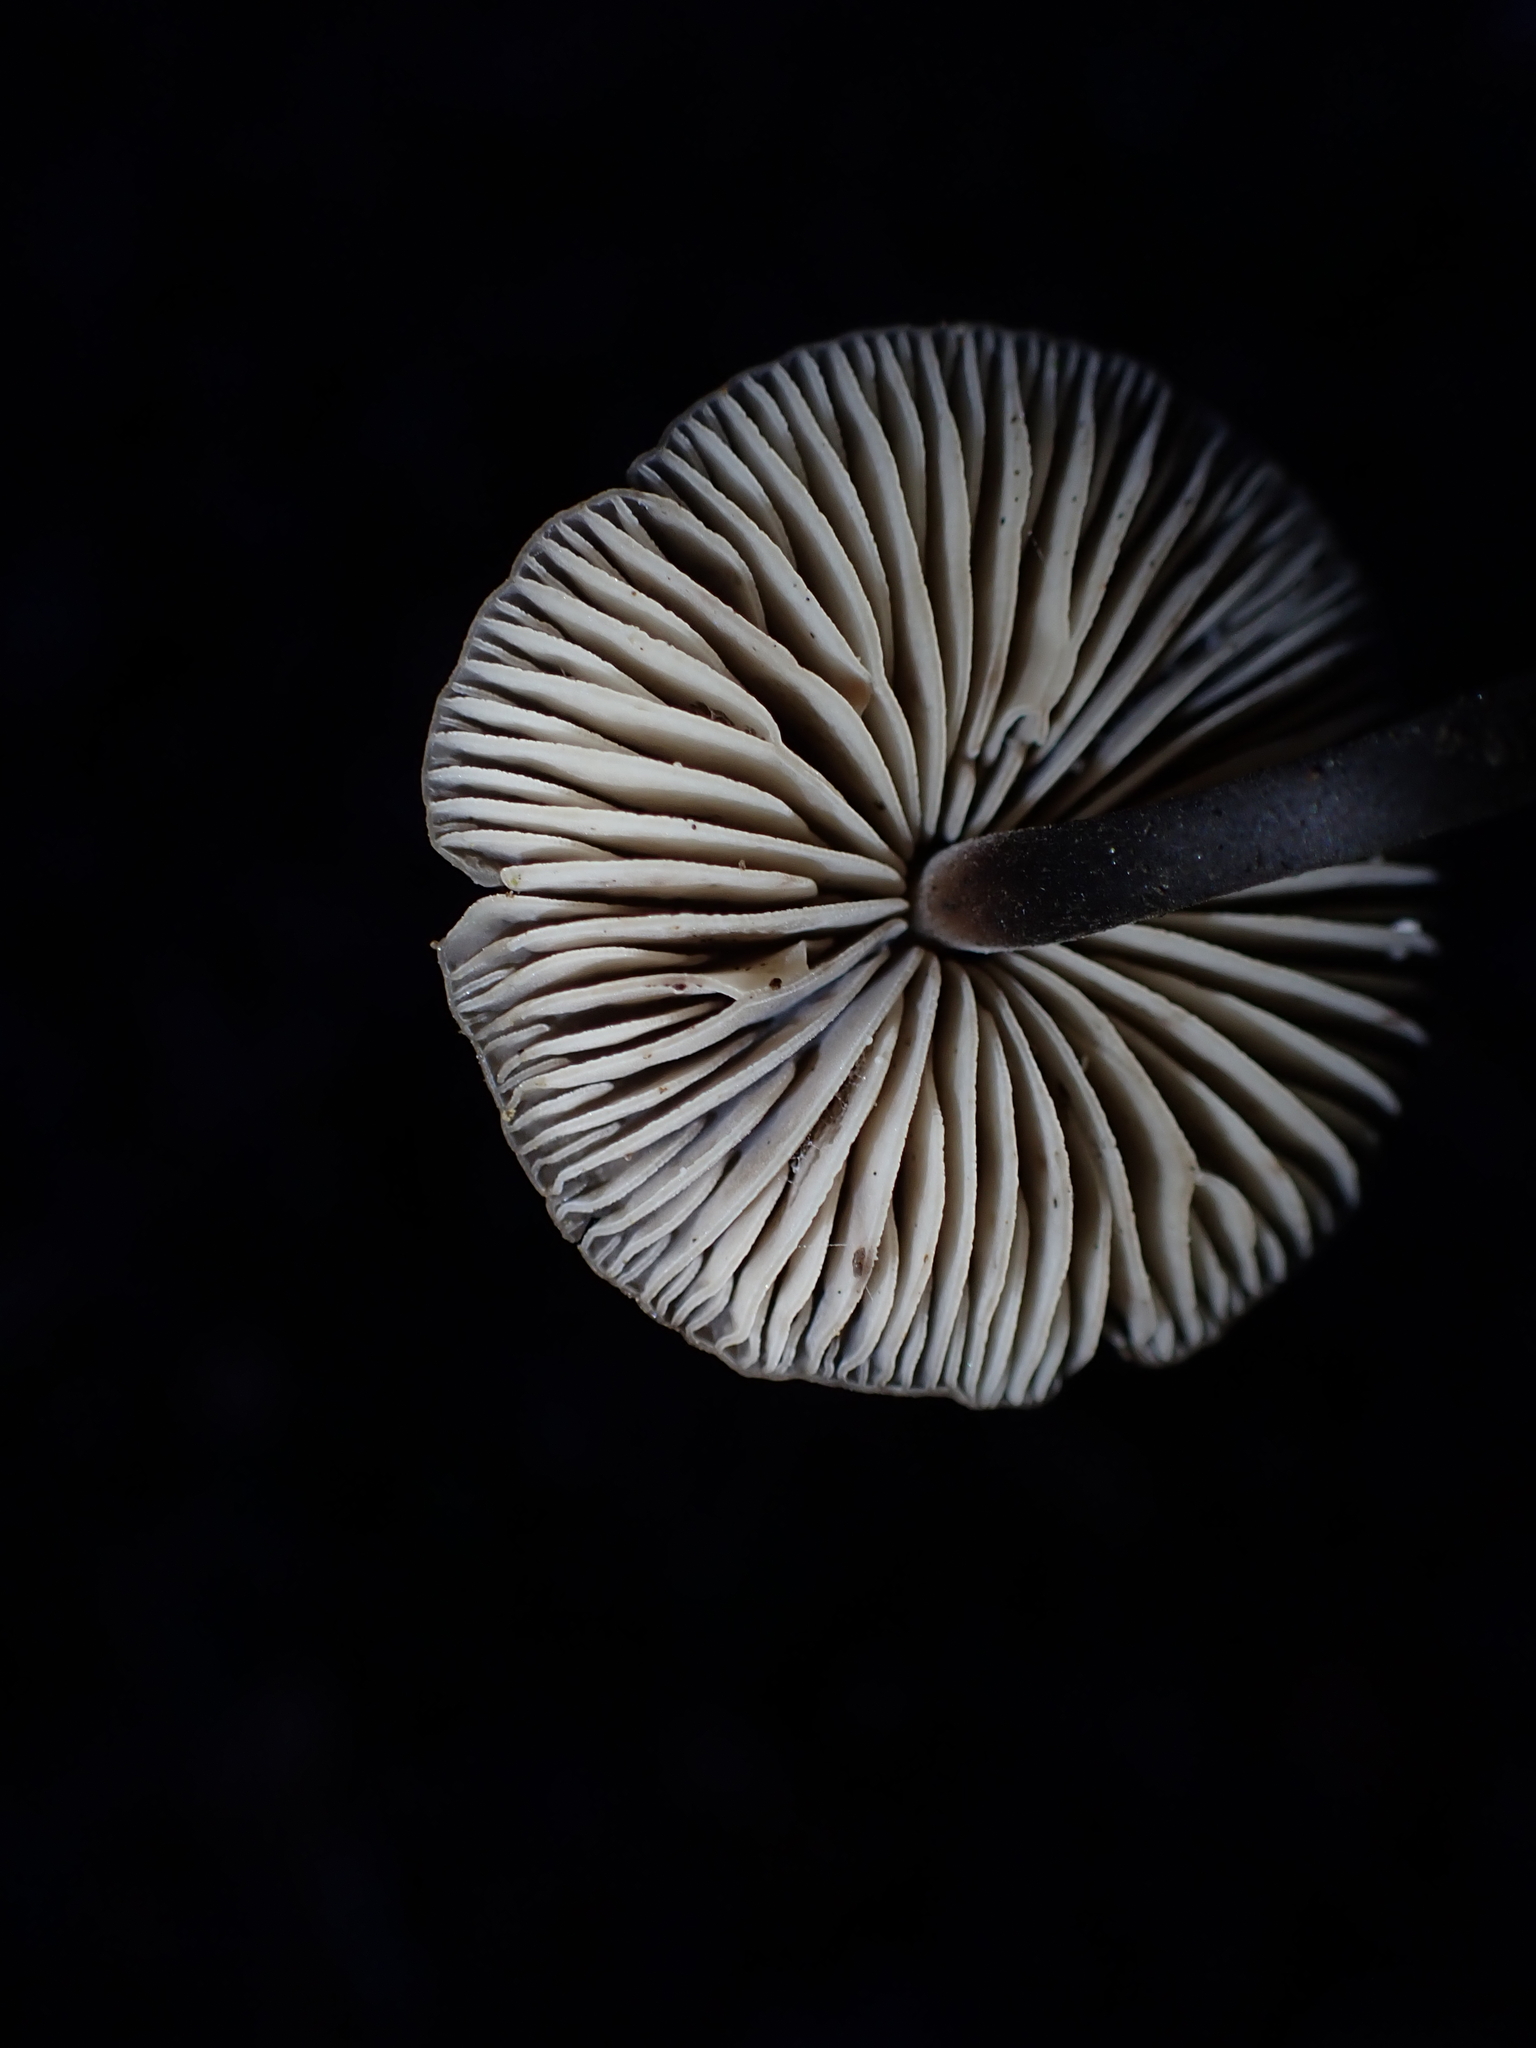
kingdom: Fungi
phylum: Basidiomycota
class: Agaricomycetes
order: Agaricales
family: Omphalotaceae
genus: Mycetinis
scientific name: Mycetinis alliaceus
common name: Garlic parachute
